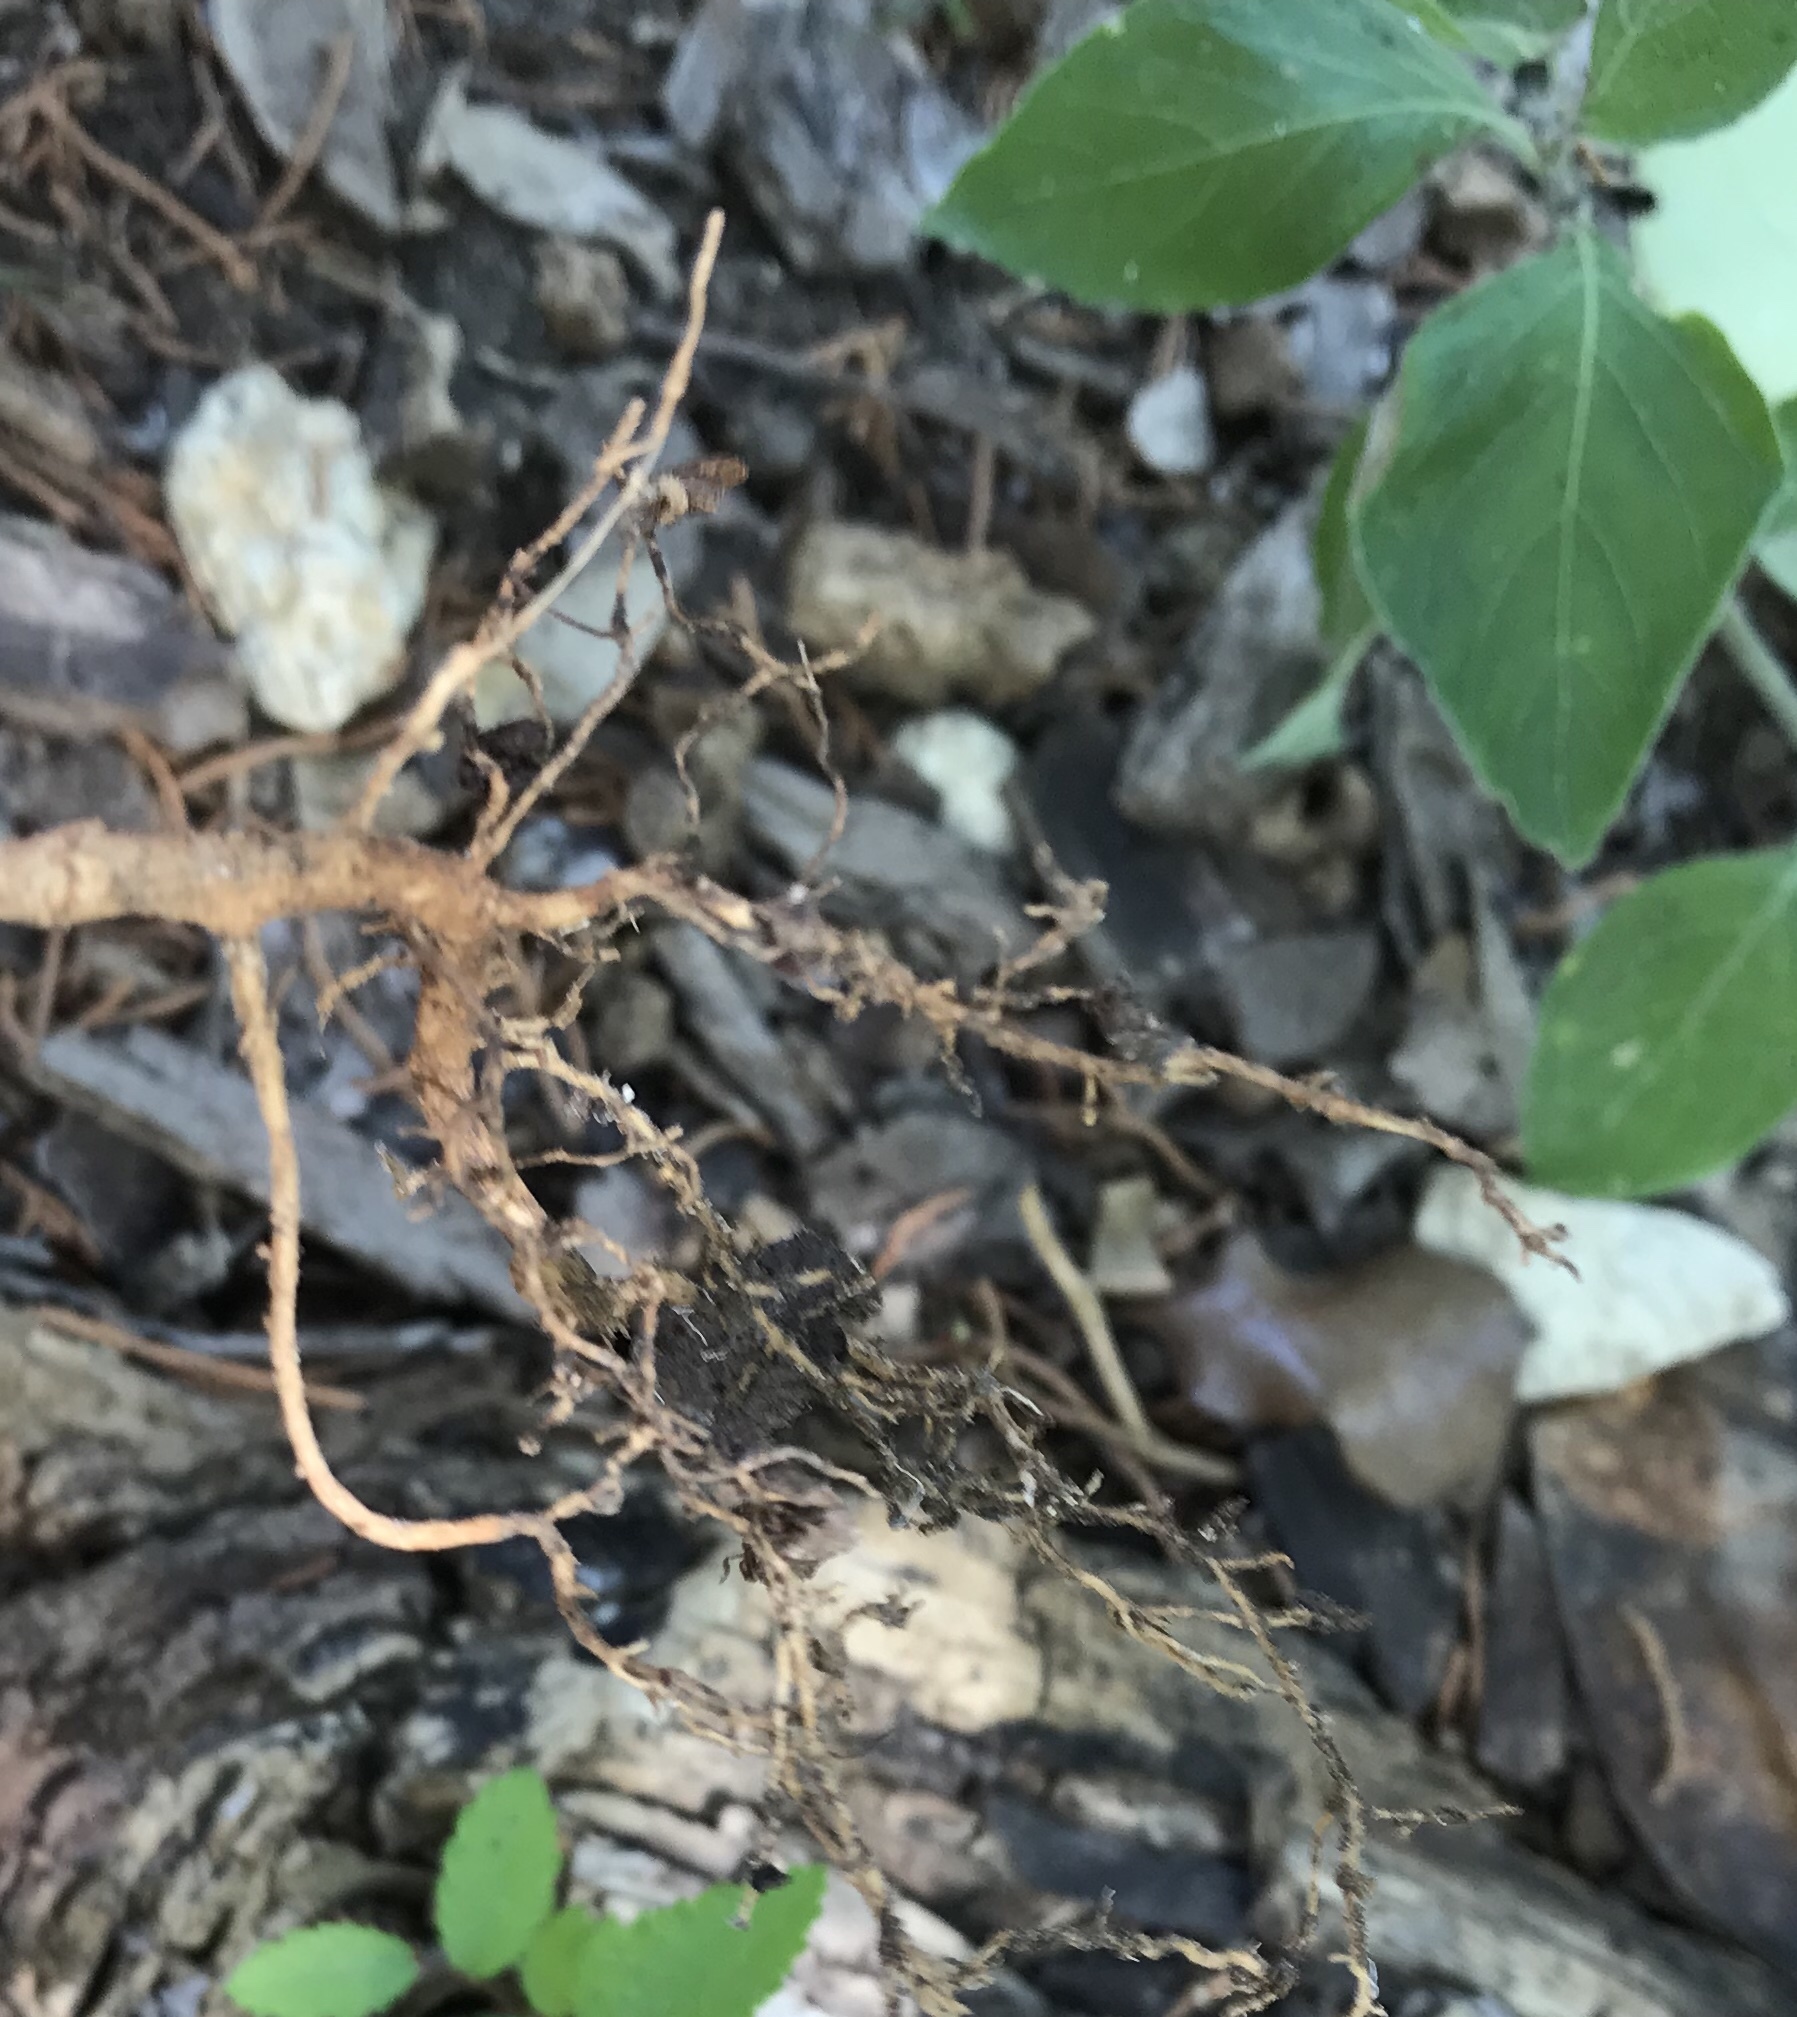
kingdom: Plantae
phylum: Tracheophyta
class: Magnoliopsida
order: Lamiales
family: Oleaceae
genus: Ligustrum
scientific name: Ligustrum lucidum
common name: Glossy privet
